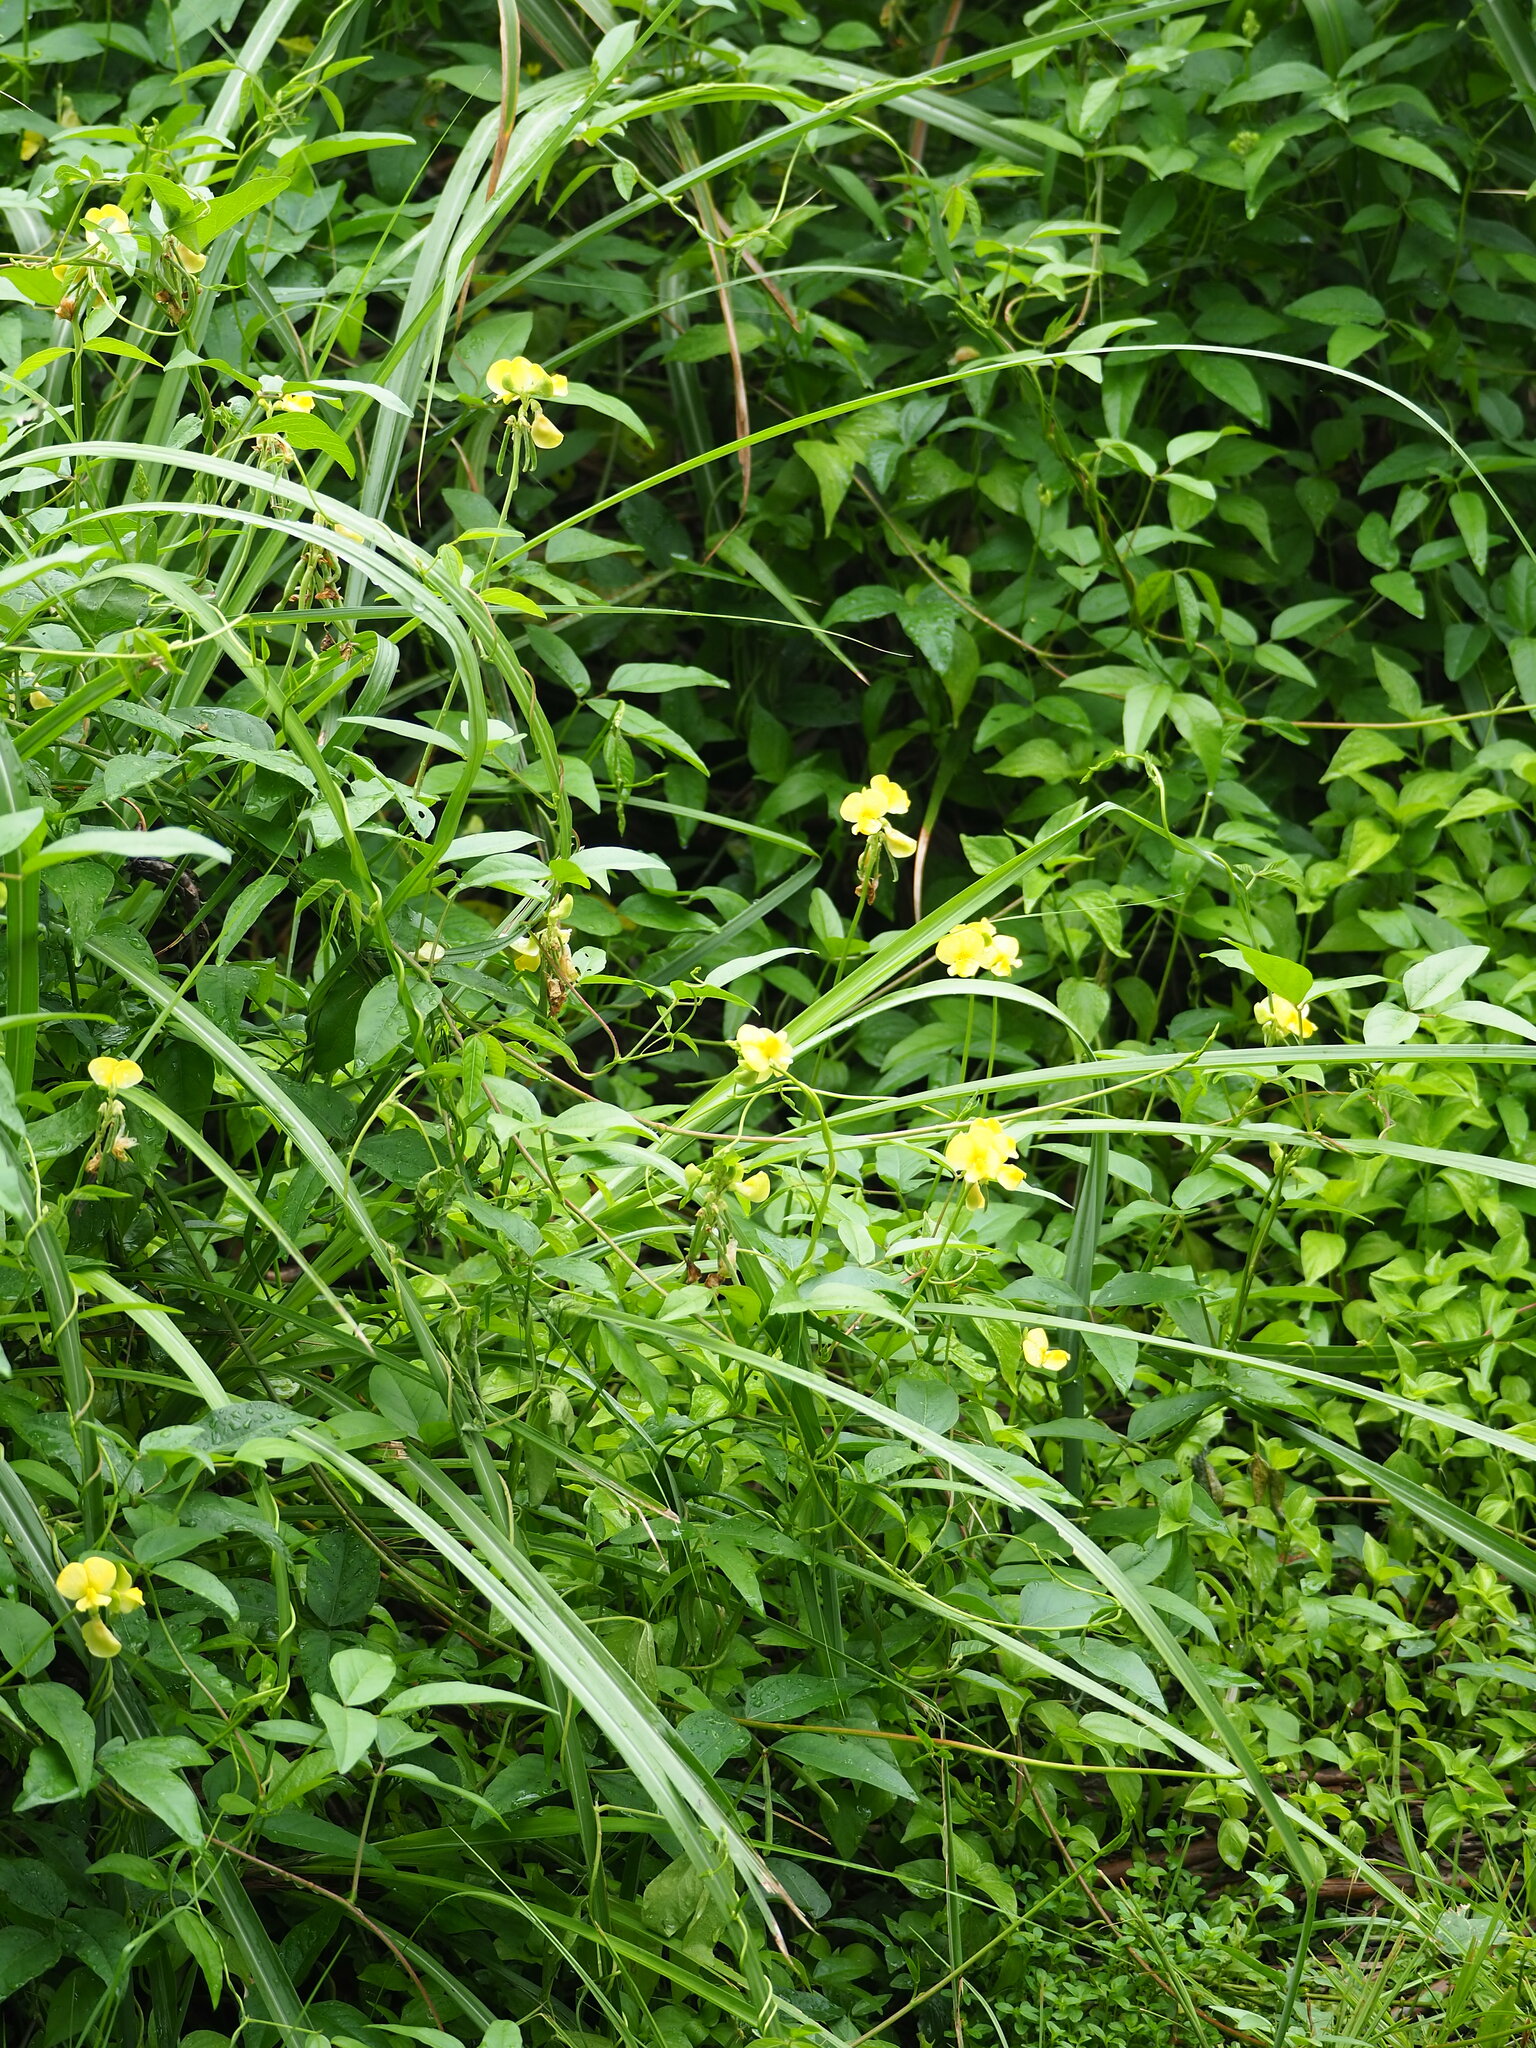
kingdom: Plantae
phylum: Tracheophyta
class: Magnoliopsida
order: Fabales
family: Fabaceae
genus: Vigna
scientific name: Vigna luteola
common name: Hairypod cowpea
